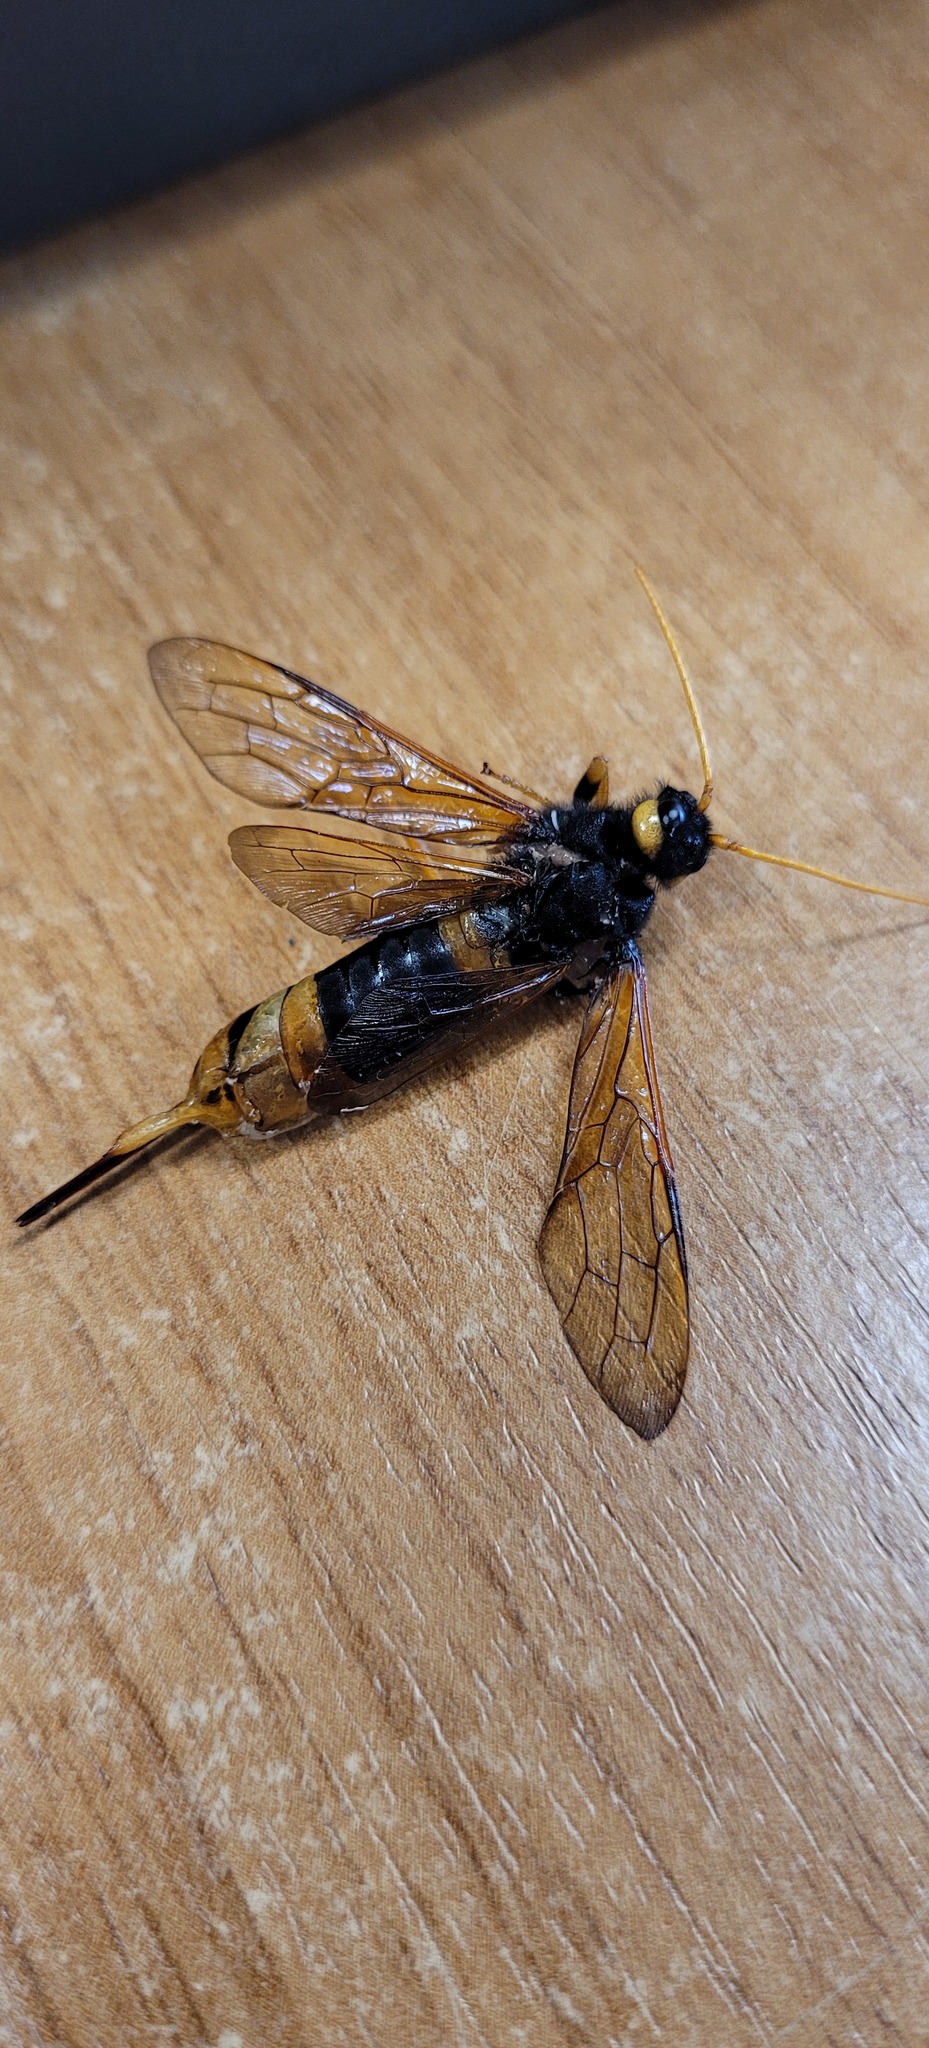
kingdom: Animalia
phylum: Arthropoda
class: Insecta
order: Hymenoptera
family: Siricidae
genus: Urocerus
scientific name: Urocerus gigas
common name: Giant woodwasp
